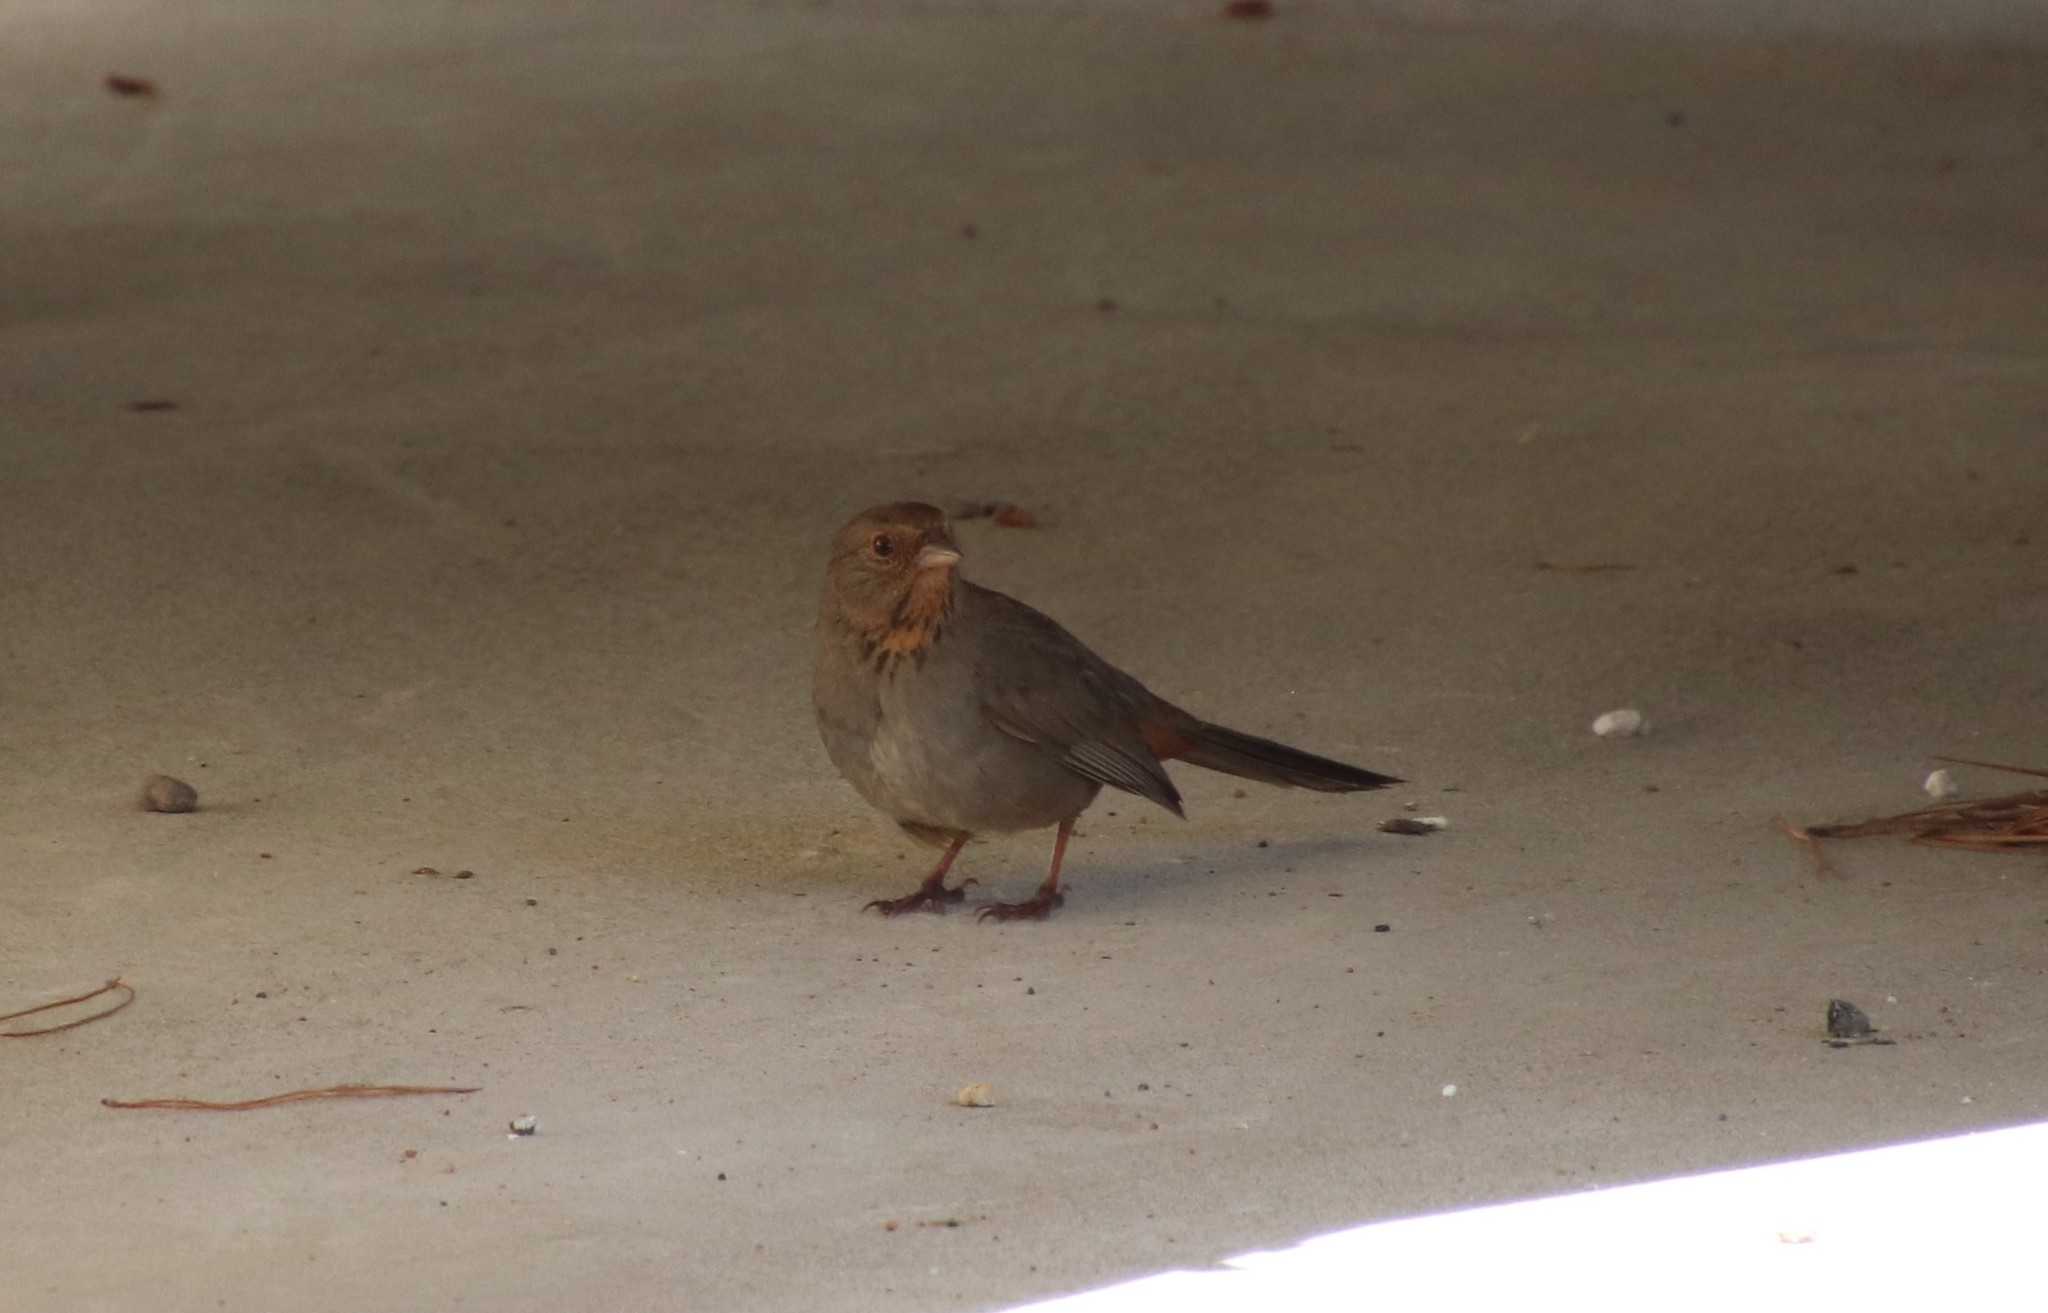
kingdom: Animalia
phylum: Chordata
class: Aves
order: Passeriformes
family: Passerellidae
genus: Melozone
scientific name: Melozone crissalis
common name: California towhee
